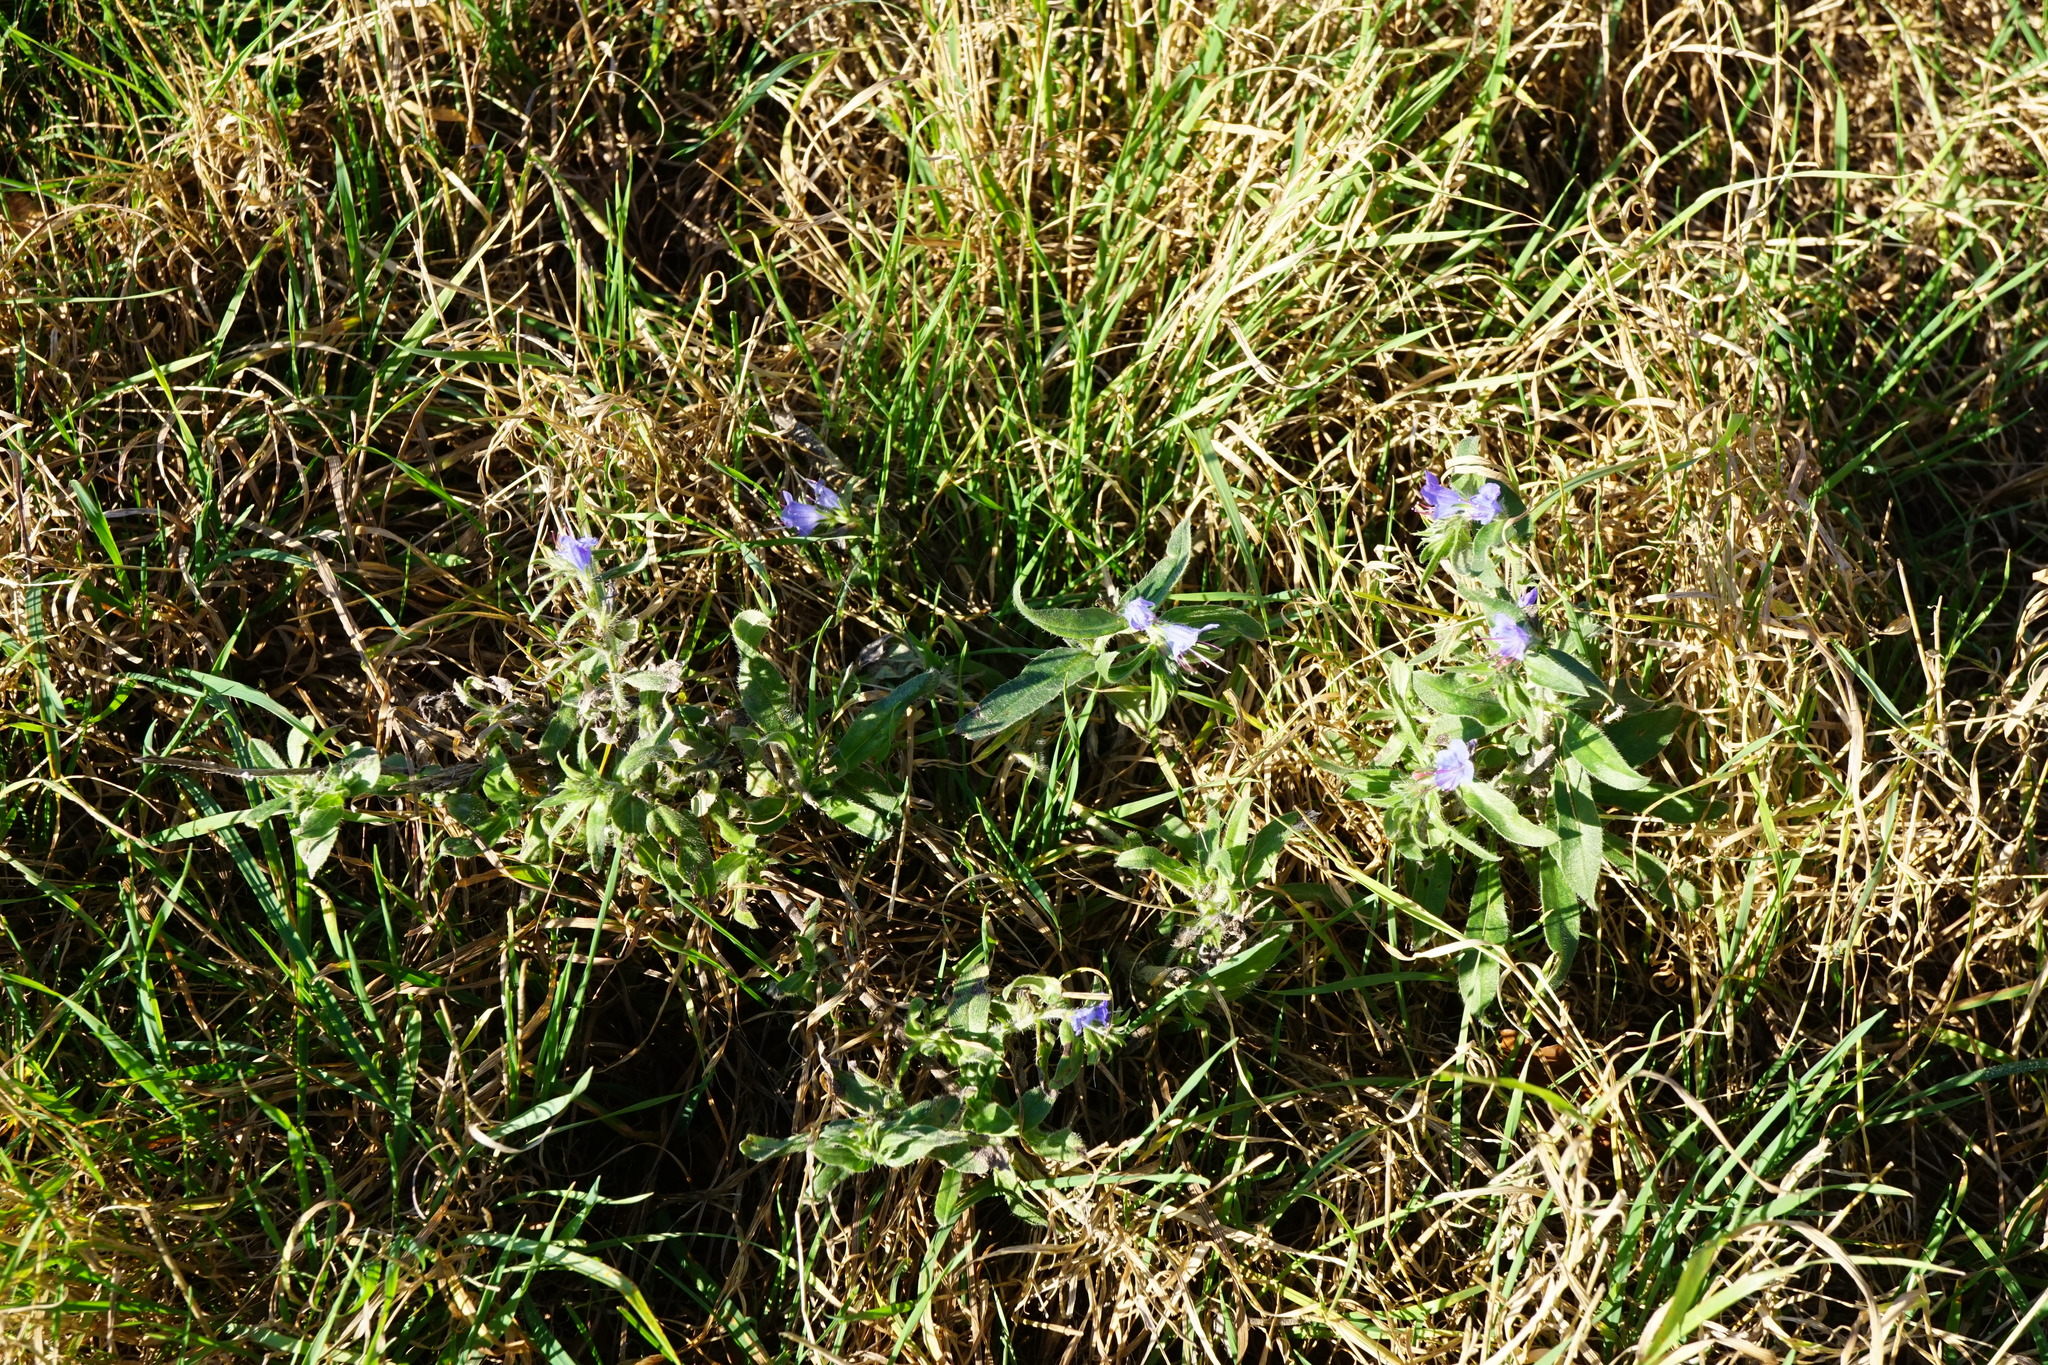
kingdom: Plantae
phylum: Tracheophyta
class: Magnoliopsida
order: Boraginales
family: Boraginaceae
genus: Echium
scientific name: Echium vulgare
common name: Common viper's bugloss
